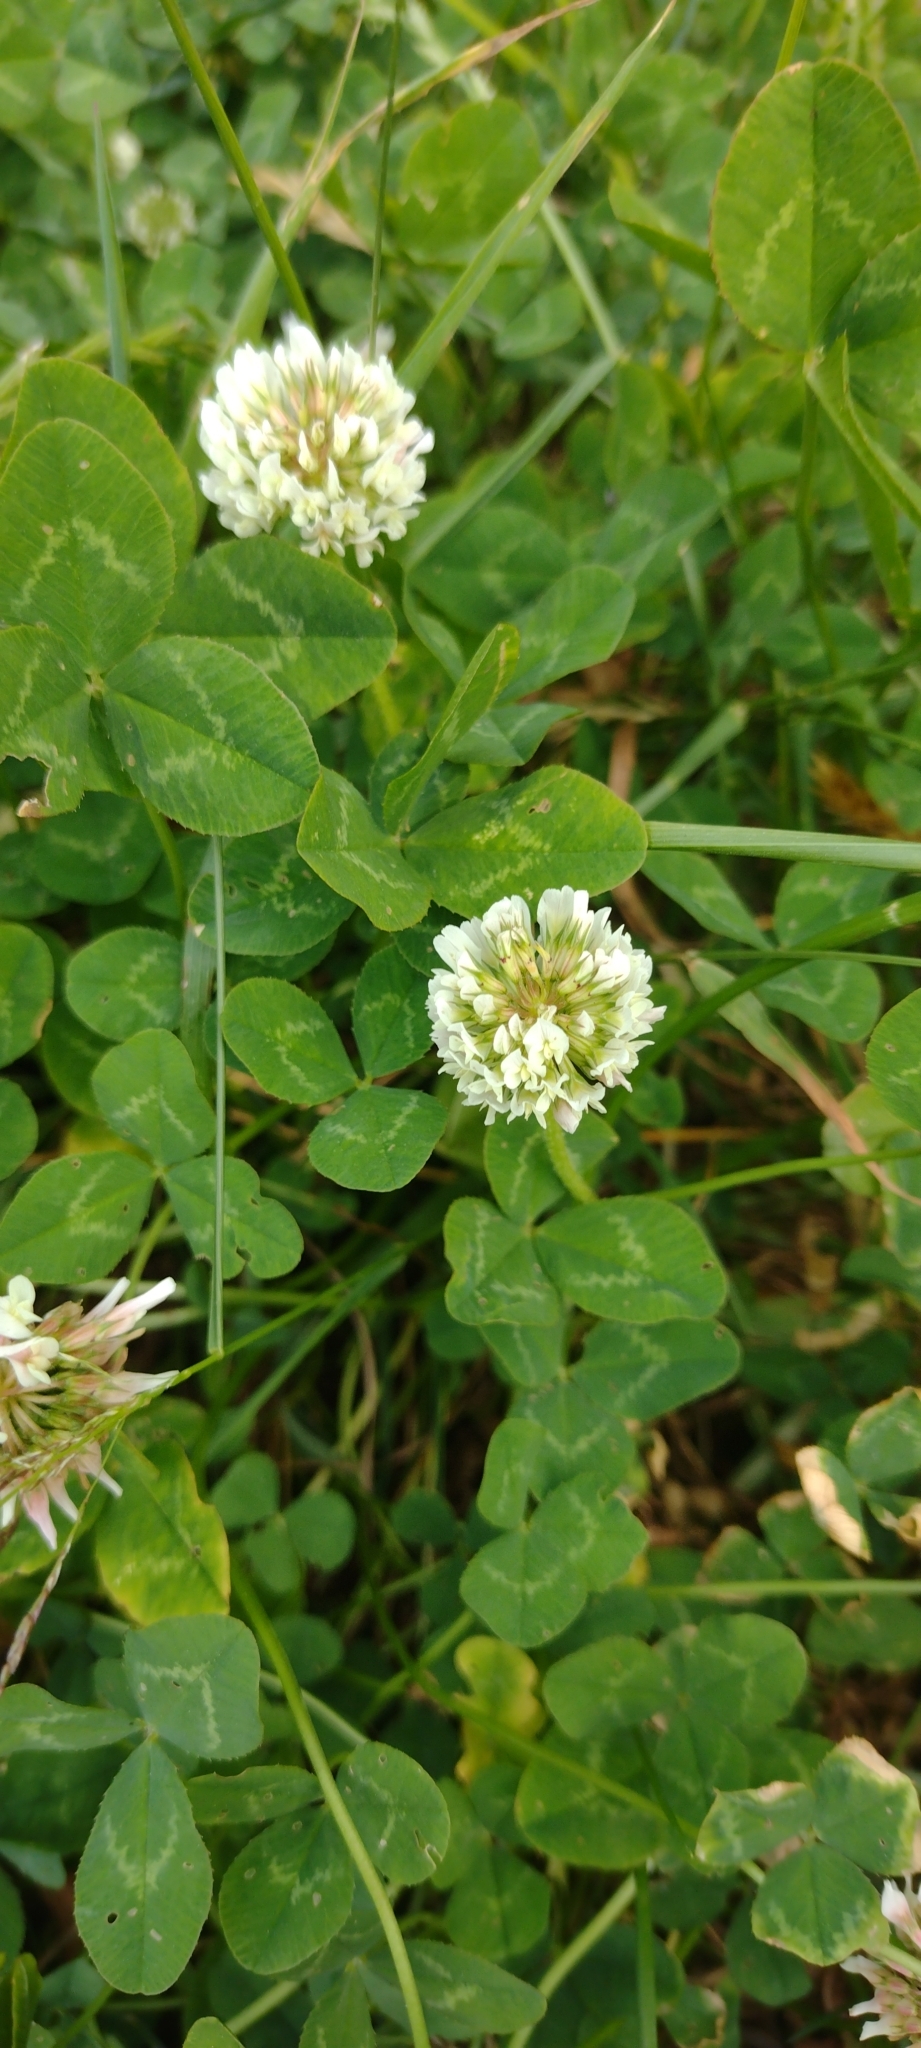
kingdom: Plantae
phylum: Tracheophyta
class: Magnoliopsida
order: Fabales
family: Fabaceae
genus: Trifolium
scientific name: Trifolium repens
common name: White clover
